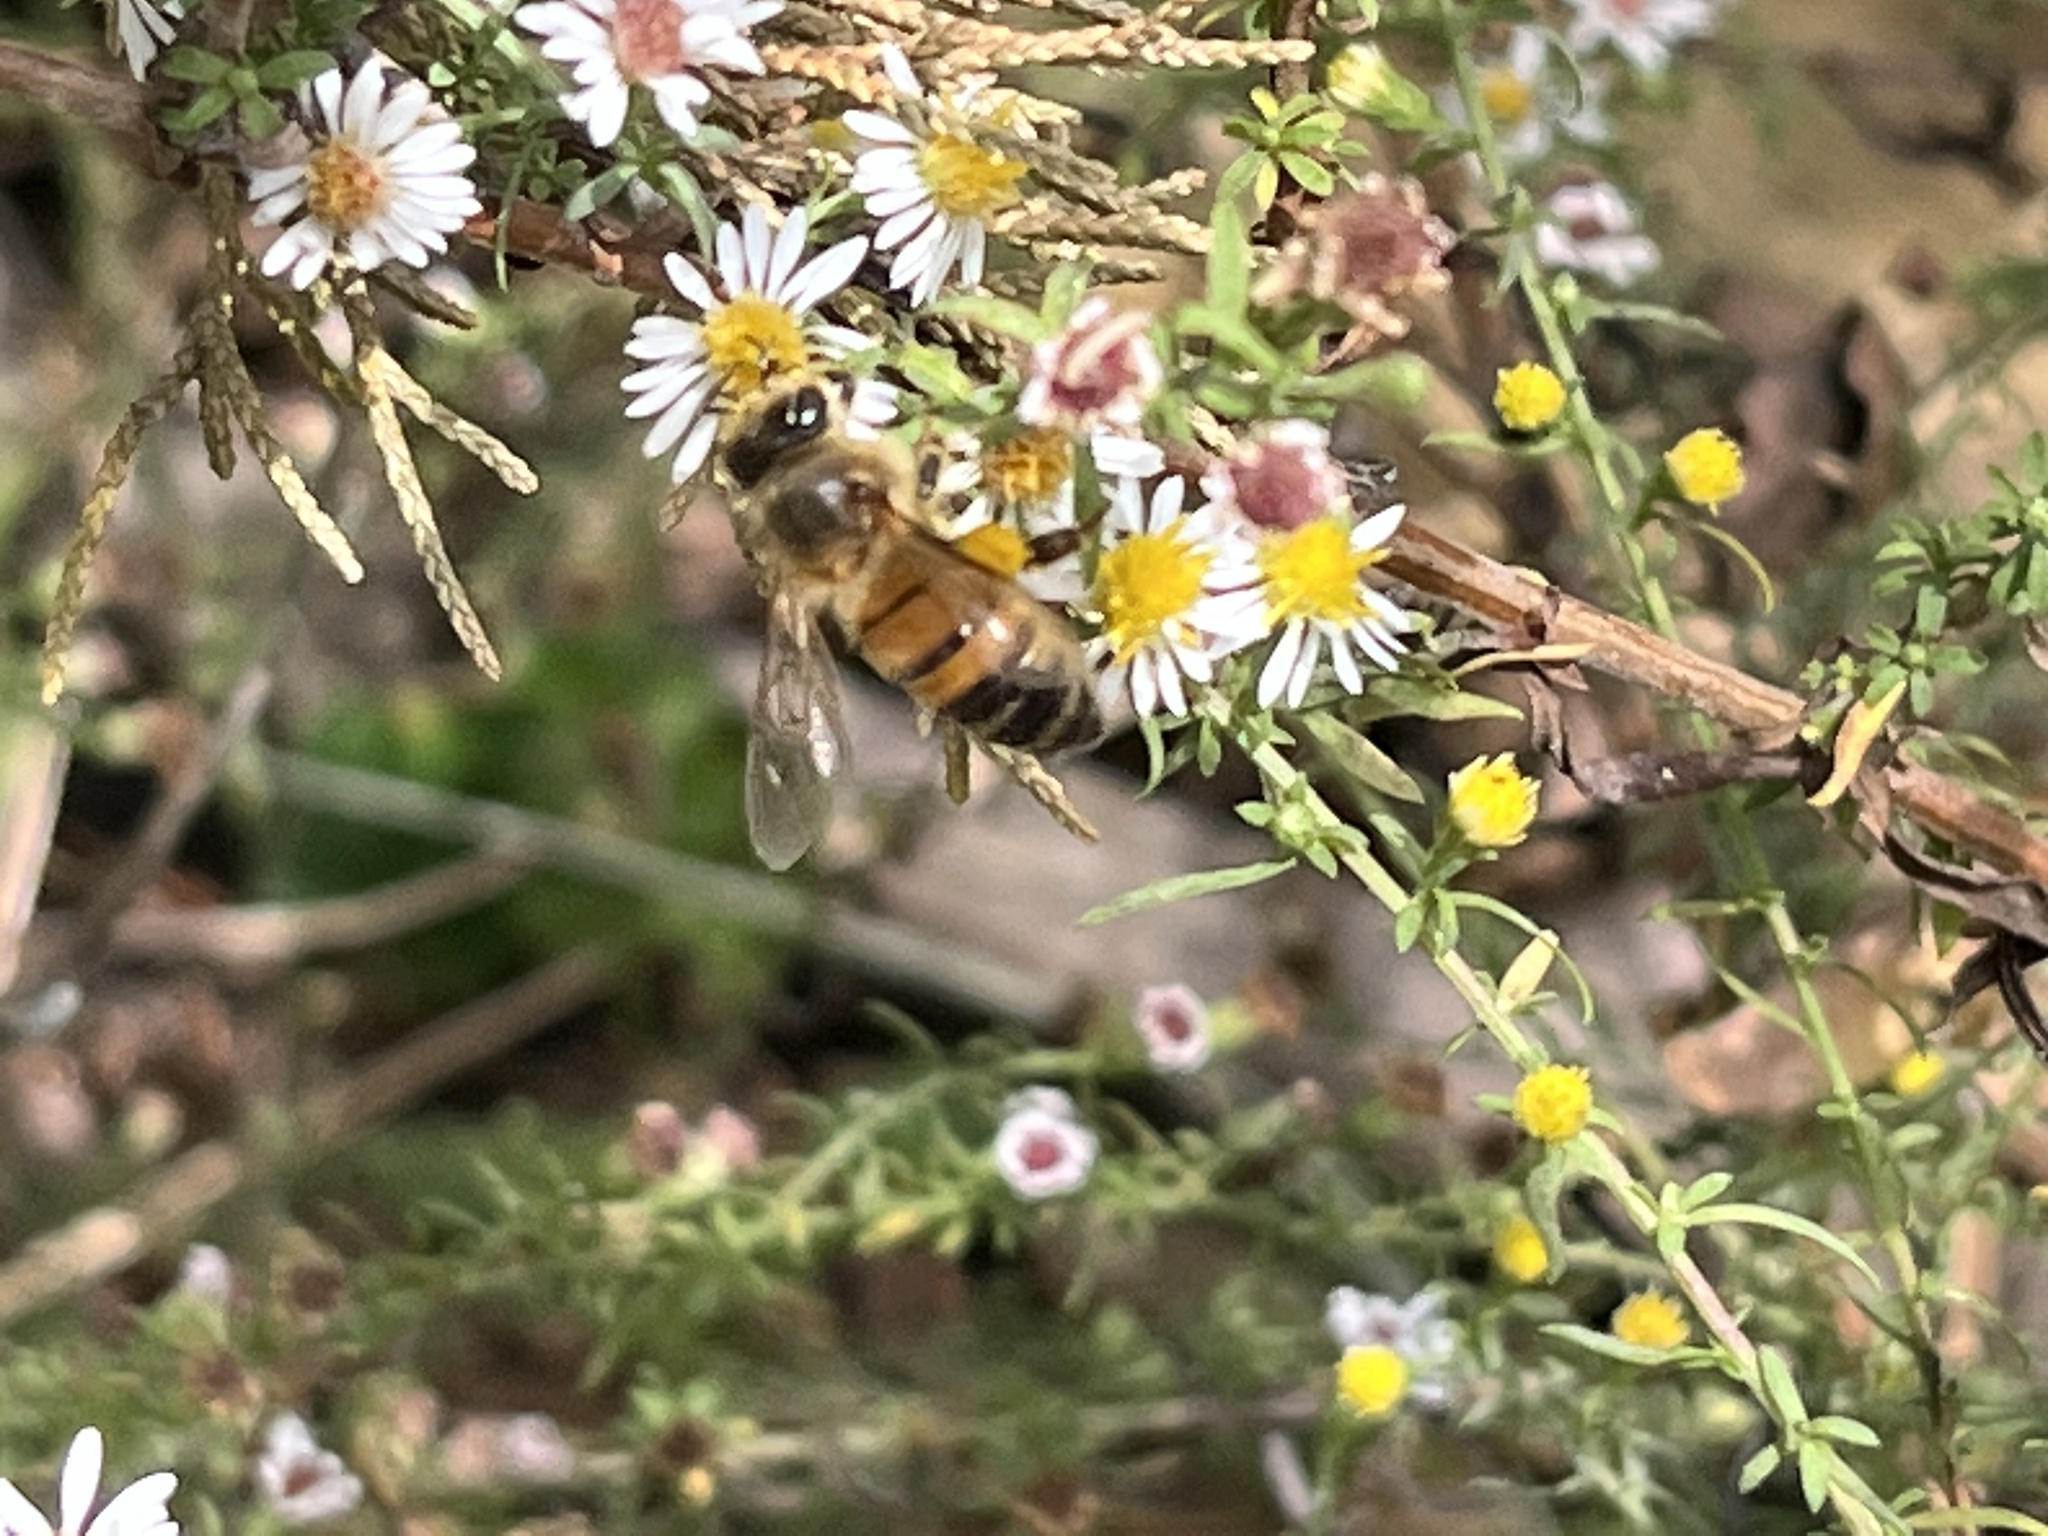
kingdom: Animalia
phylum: Arthropoda
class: Insecta
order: Hymenoptera
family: Apidae
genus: Apis
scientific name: Apis mellifera
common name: Honey bee
